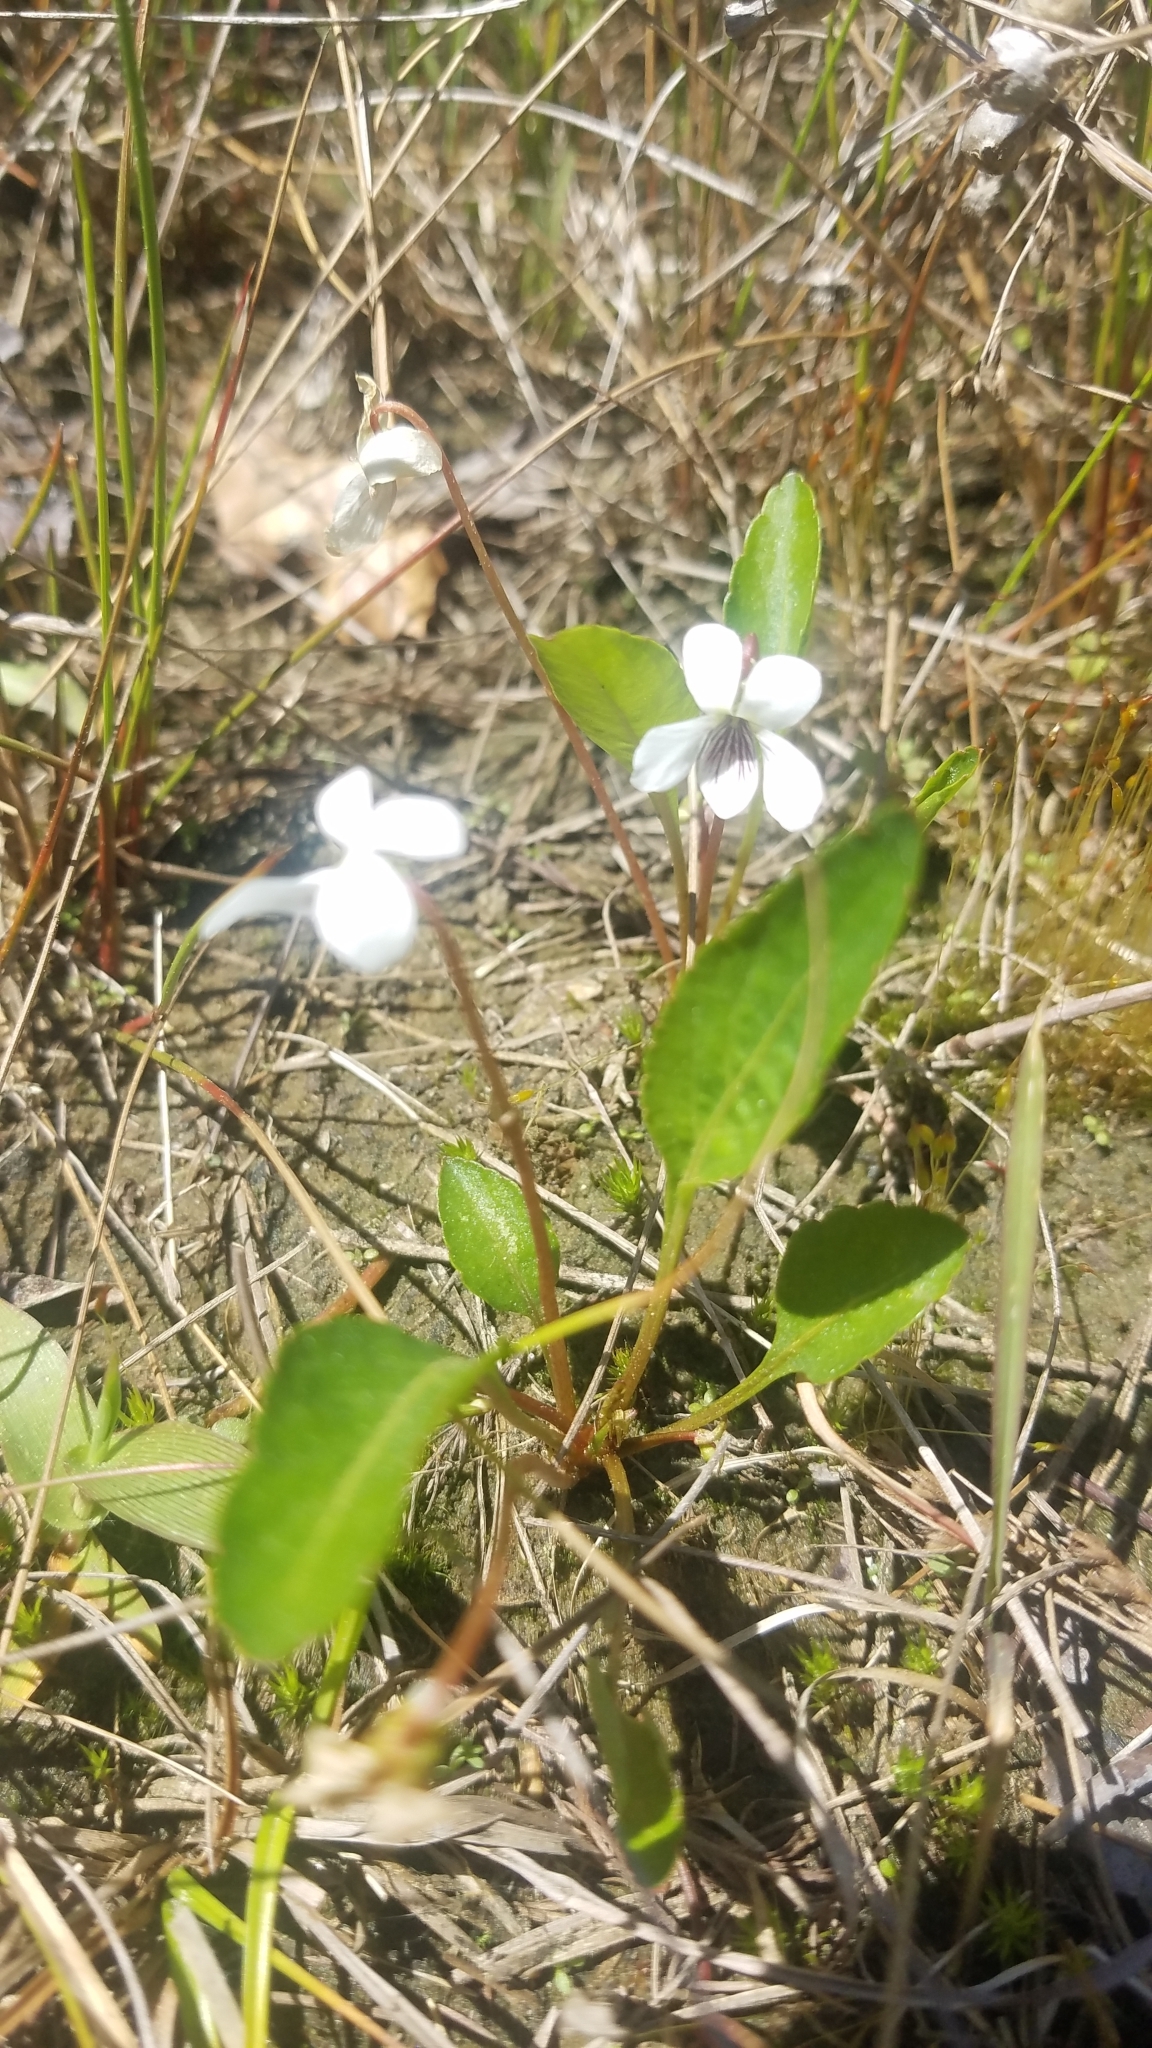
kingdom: Plantae
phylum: Tracheophyta
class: Magnoliopsida
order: Malpighiales
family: Violaceae
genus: Viola
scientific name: Viola lanceolata
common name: Bog white violet
